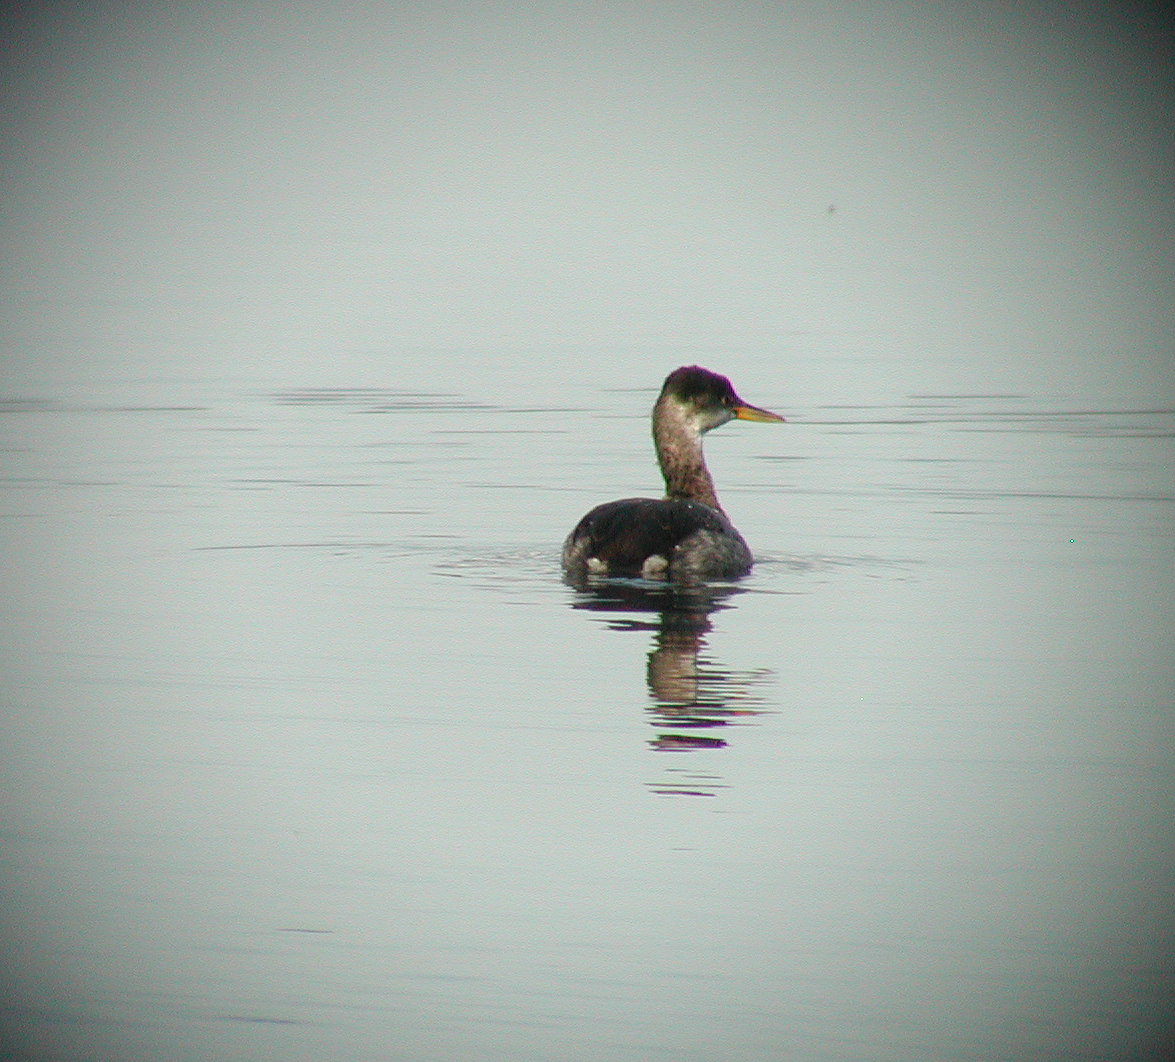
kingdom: Animalia
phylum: Chordata
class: Aves
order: Podicipediformes
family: Podicipedidae
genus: Podiceps
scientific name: Podiceps grisegena
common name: Red-necked grebe
